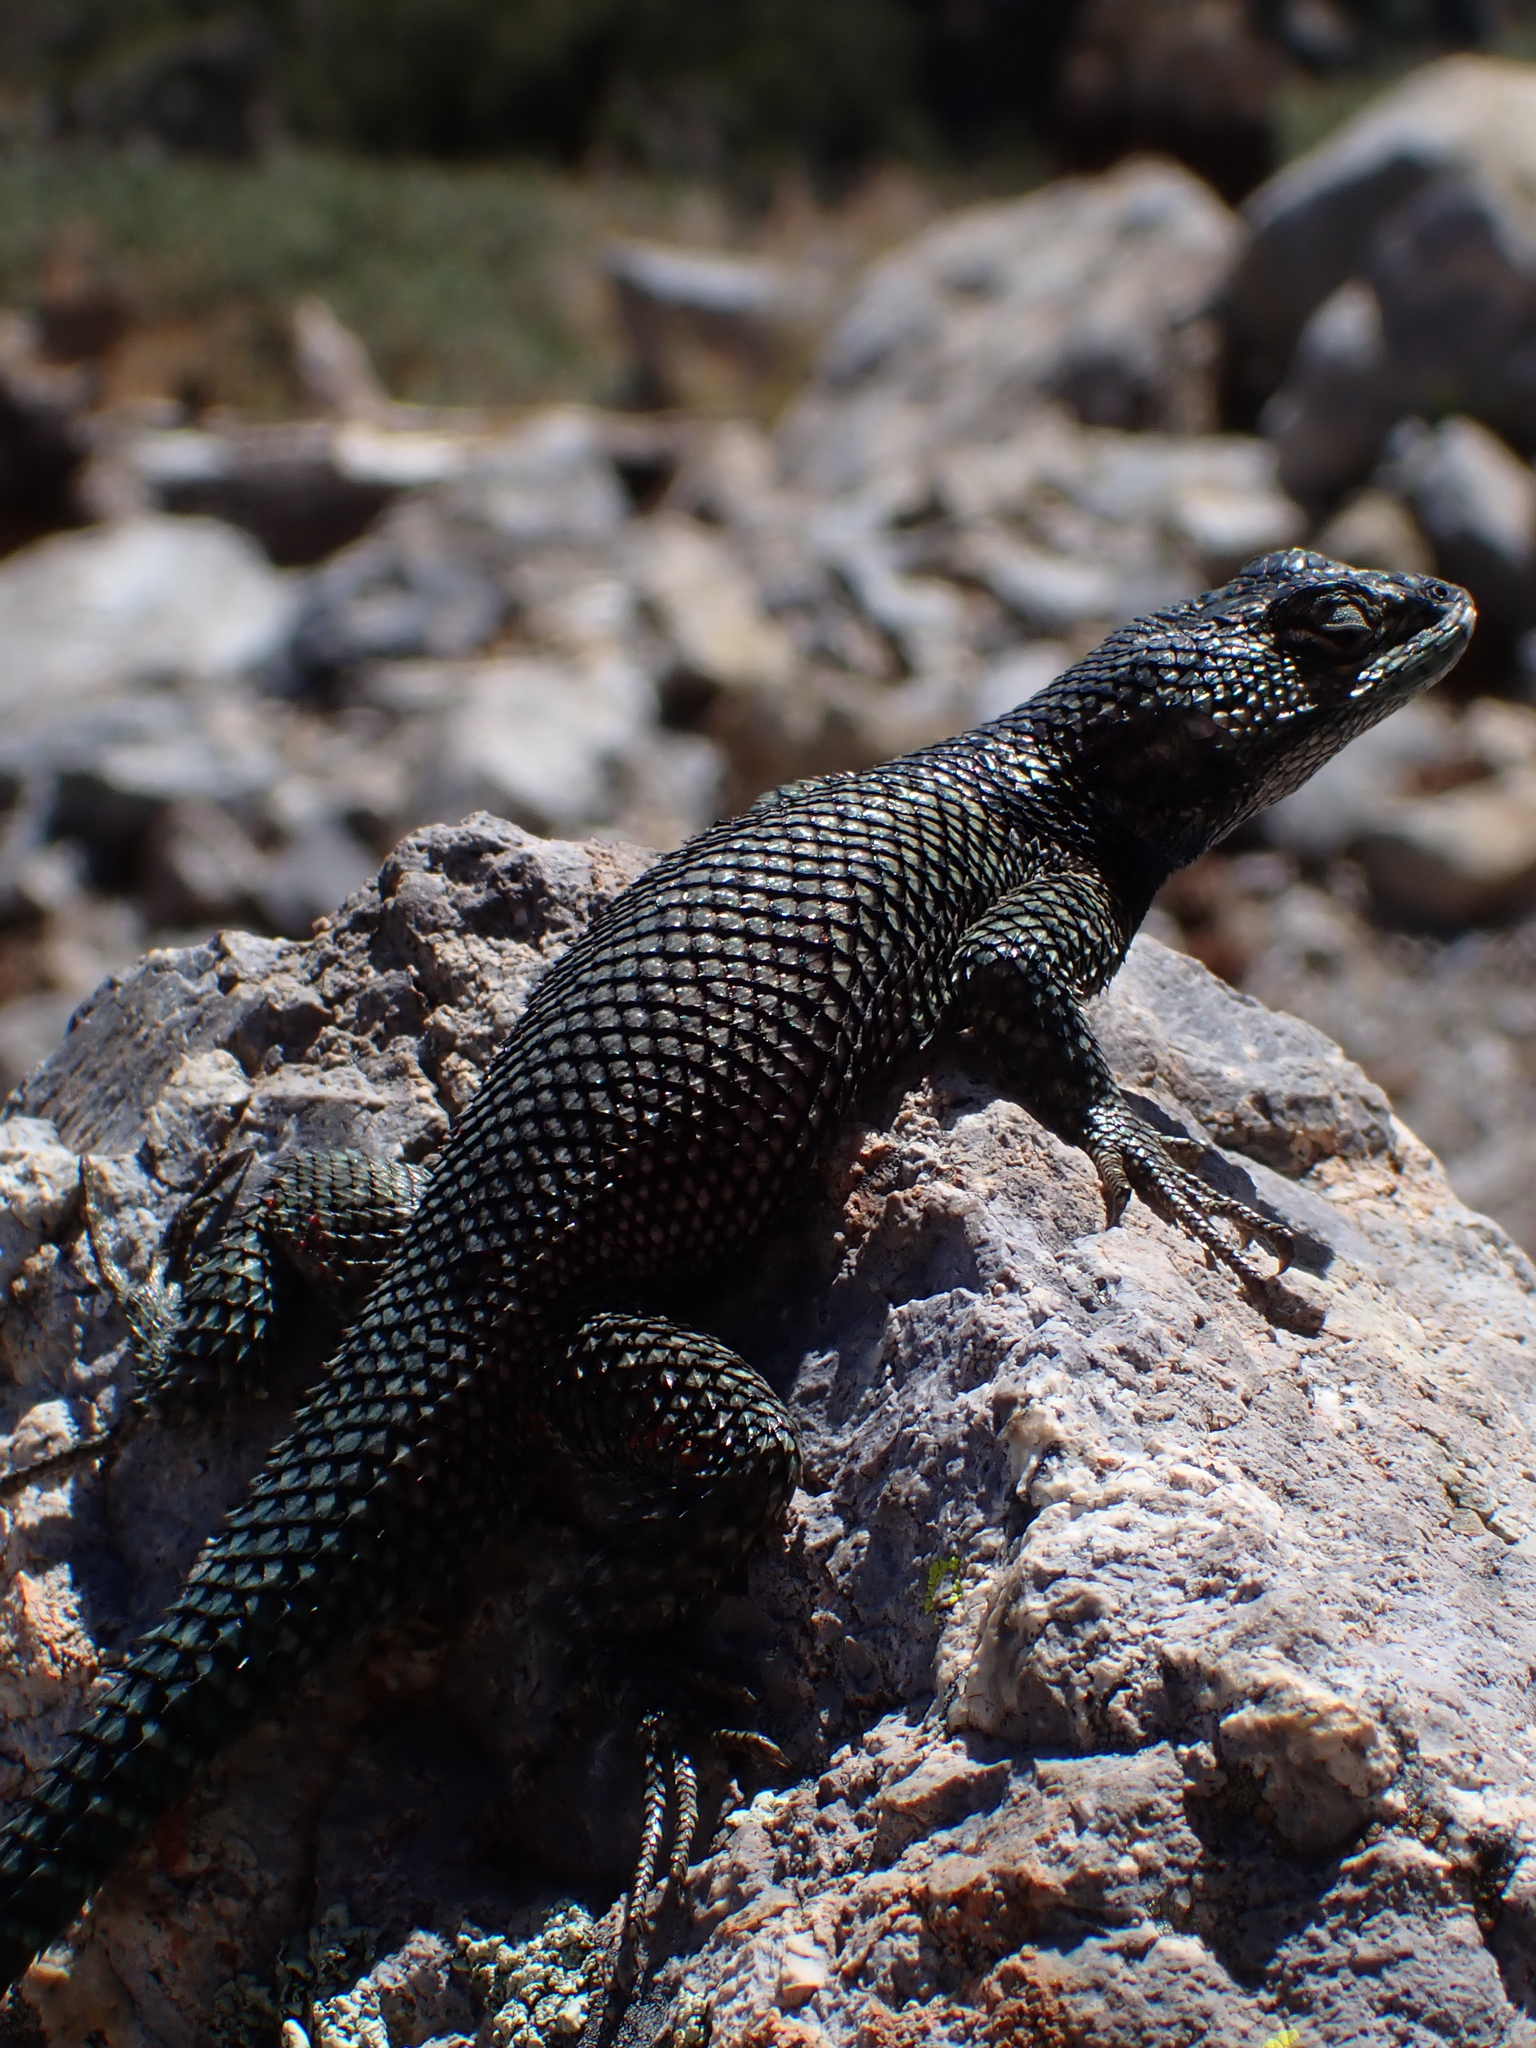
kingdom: Animalia
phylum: Chordata
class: Squamata
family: Phrynosomatidae
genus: Sceloporus
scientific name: Sceloporus jarrovii
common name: Yarrow's spiny lizard
